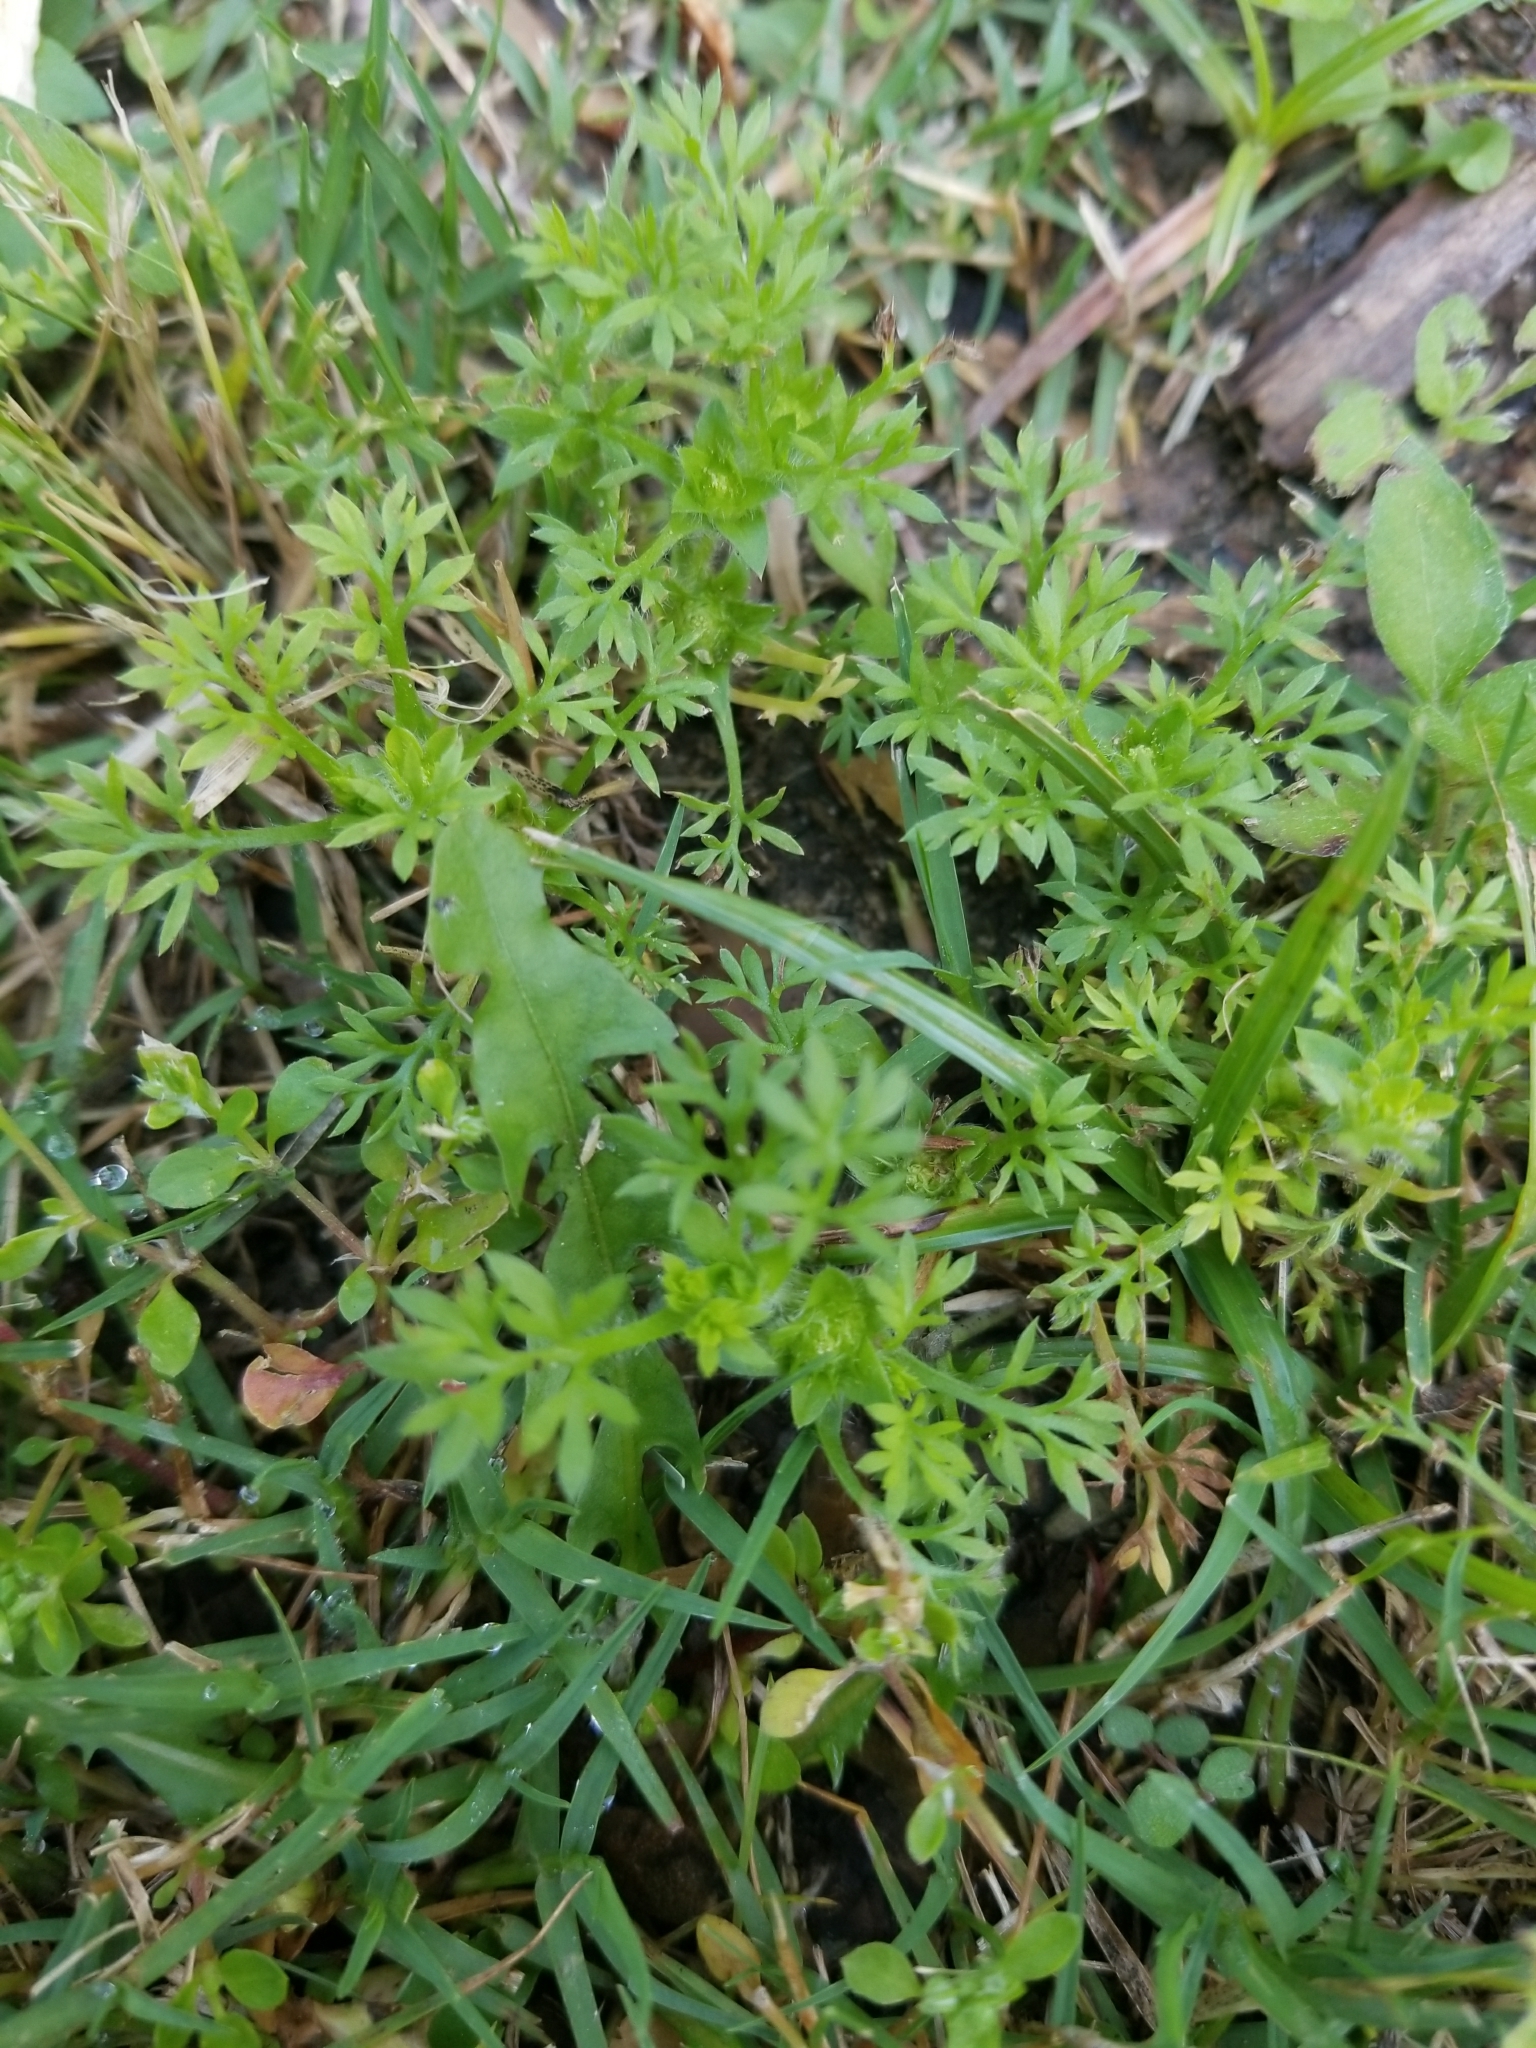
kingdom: Plantae
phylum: Tracheophyta
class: Magnoliopsida
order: Asterales
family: Asteraceae
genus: Soliva
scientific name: Soliva sessilis
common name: Field burrweed
